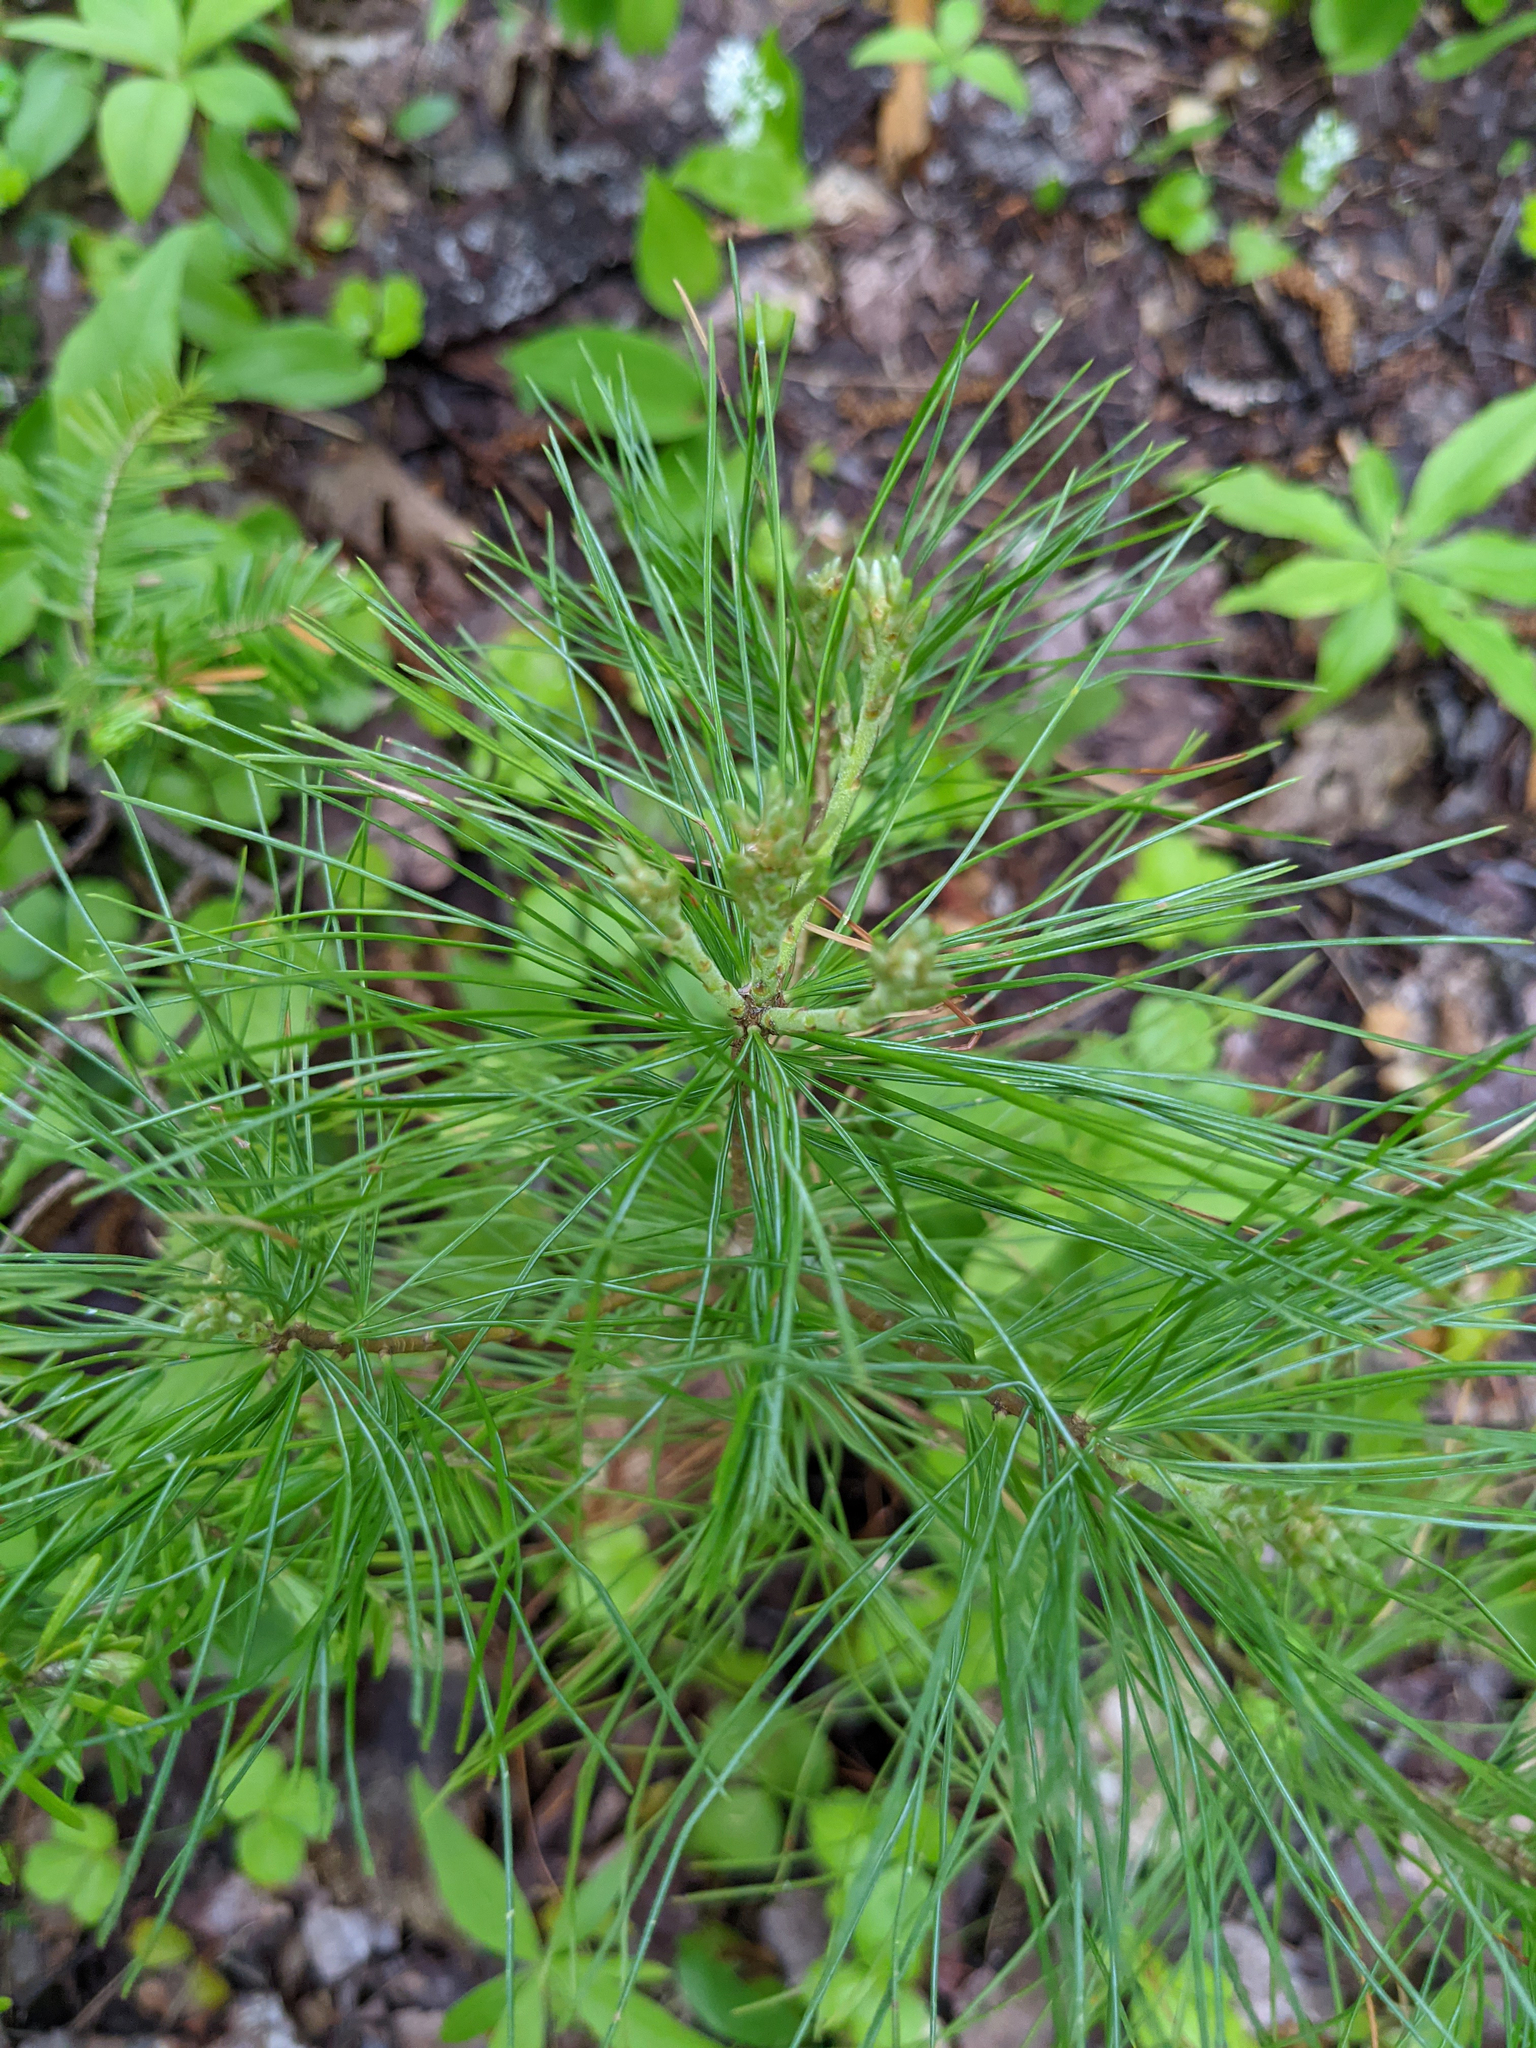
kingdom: Plantae
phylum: Tracheophyta
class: Pinopsida
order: Pinales
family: Pinaceae
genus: Pinus
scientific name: Pinus strobus
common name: Weymouth pine
